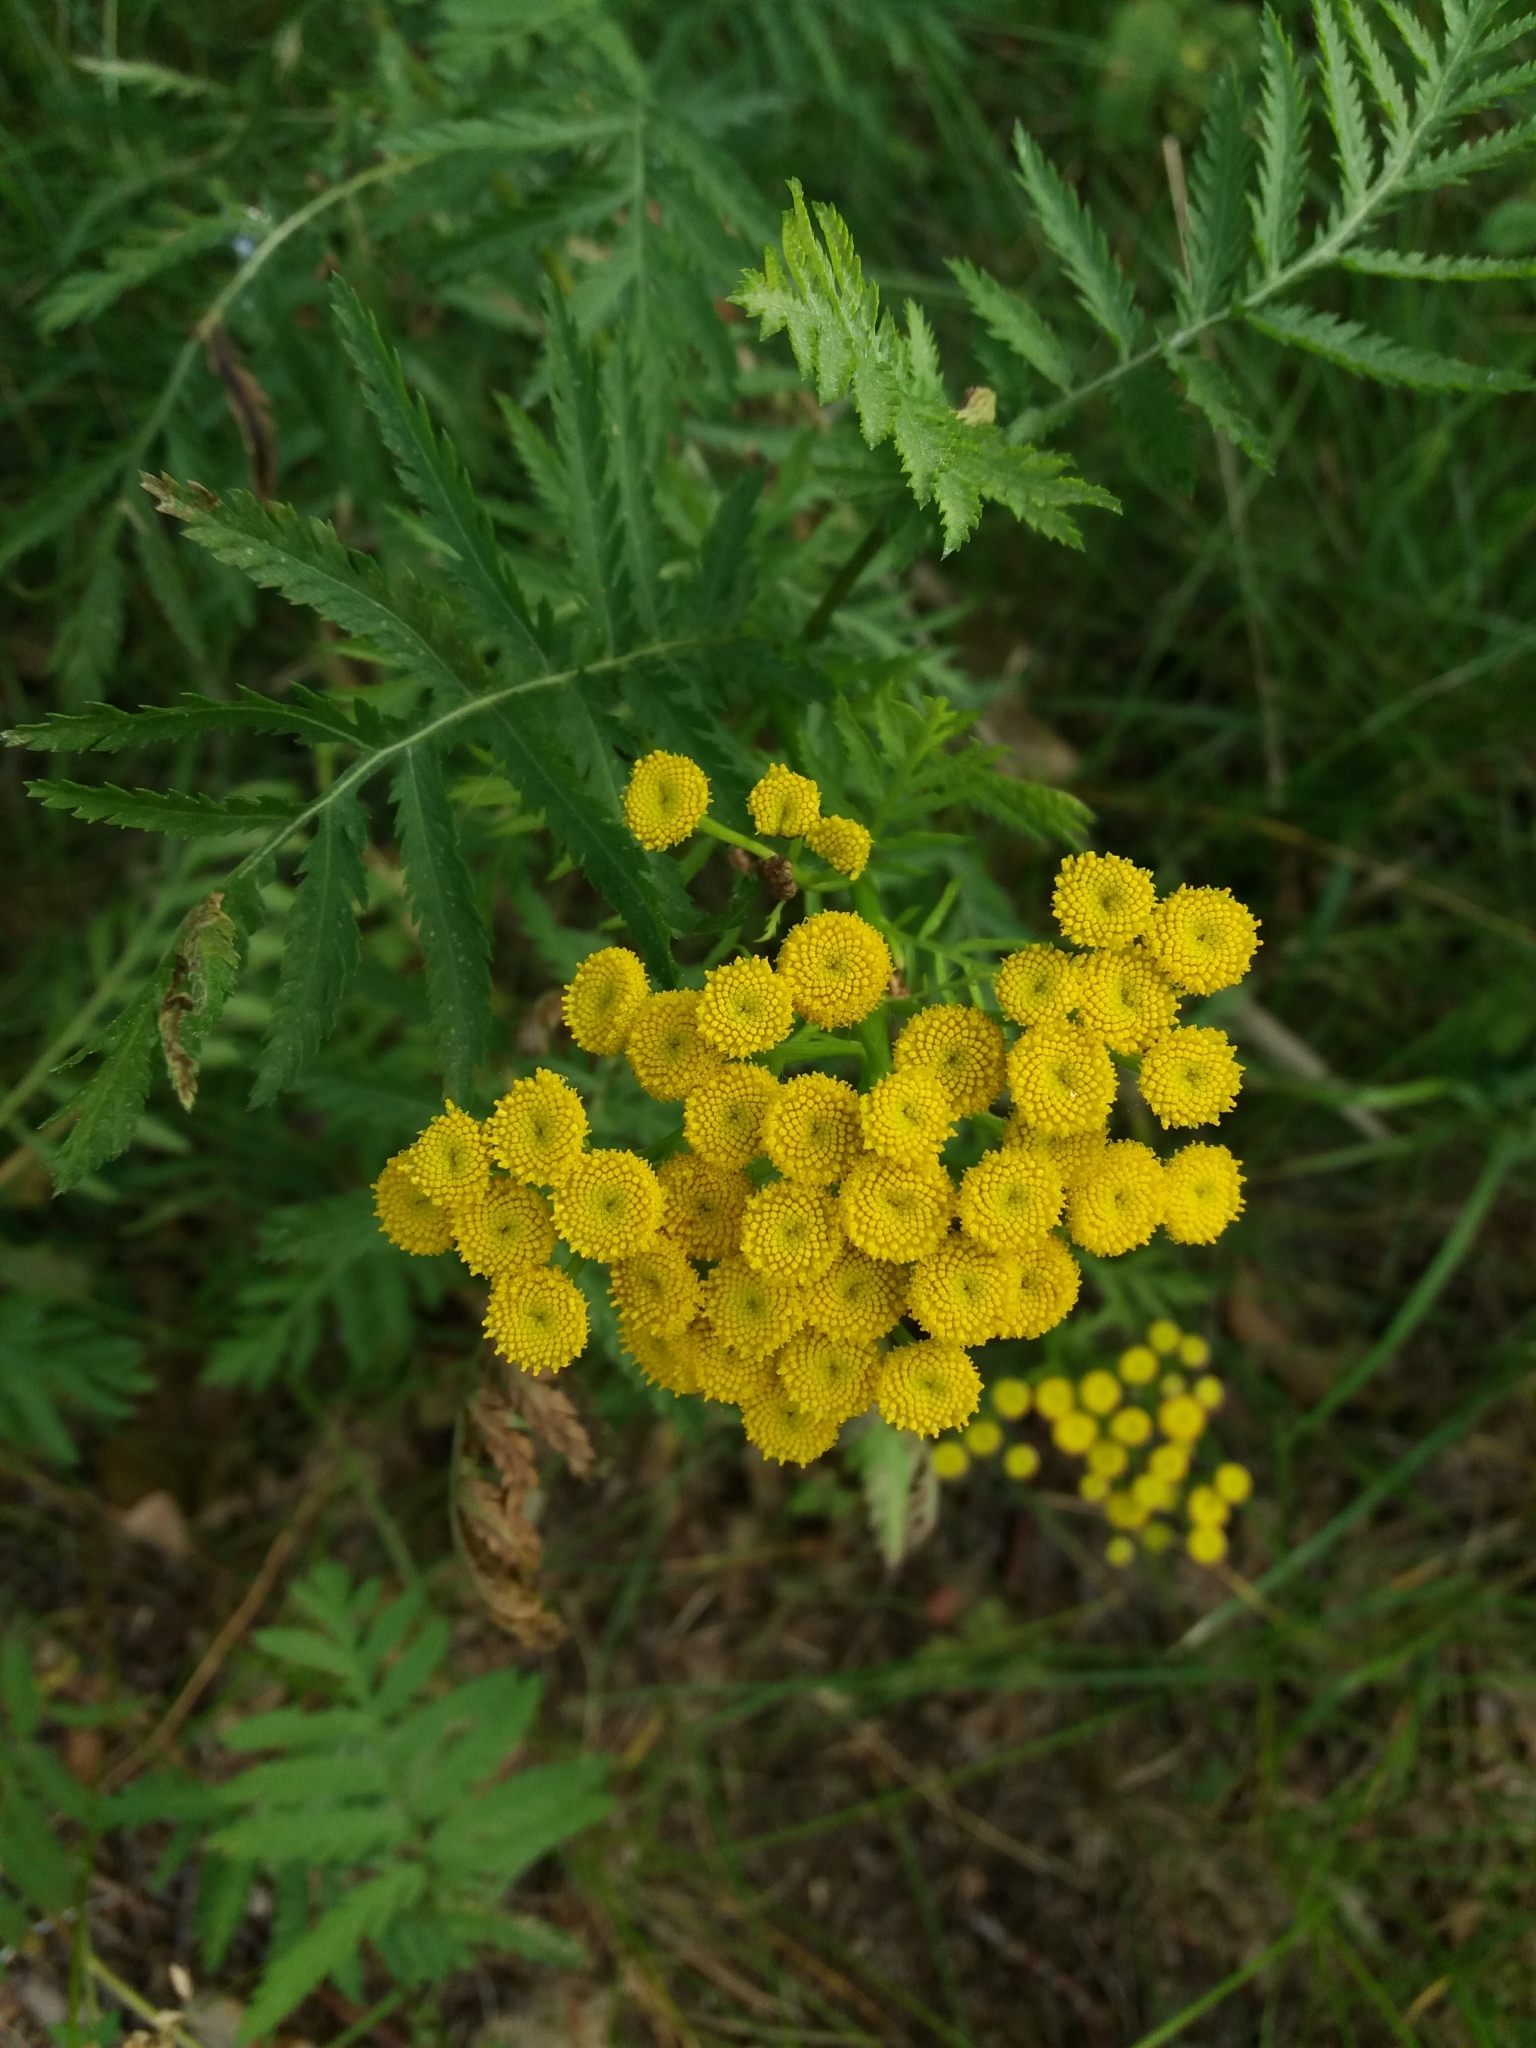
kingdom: Plantae
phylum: Tracheophyta
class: Magnoliopsida
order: Asterales
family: Asteraceae
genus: Tanacetum
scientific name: Tanacetum vulgare
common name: Common tansy
